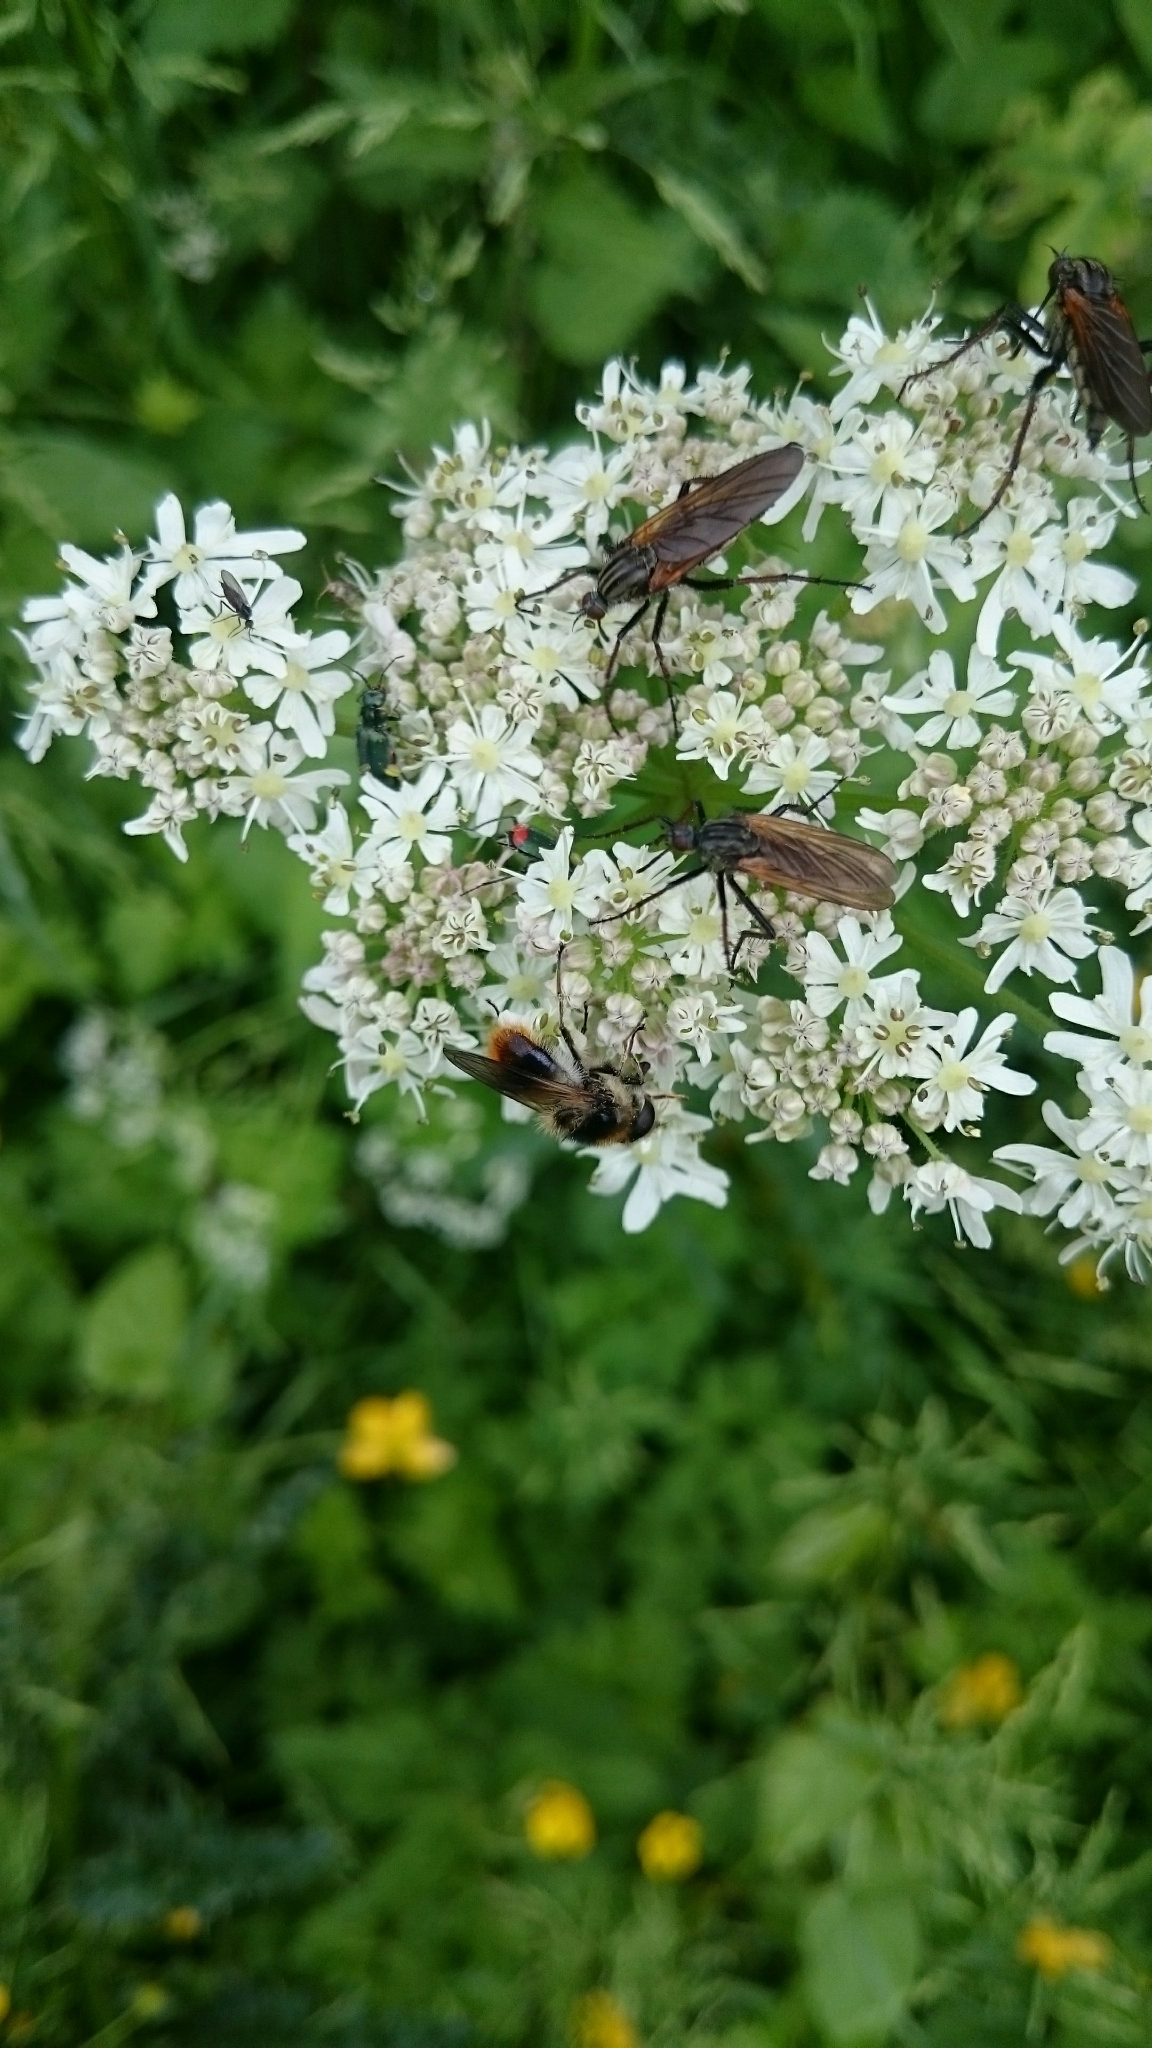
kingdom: Animalia
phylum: Arthropoda
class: Insecta
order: Diptera
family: Syrphidae
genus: Cheilosia
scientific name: Cheilosia illustrata
